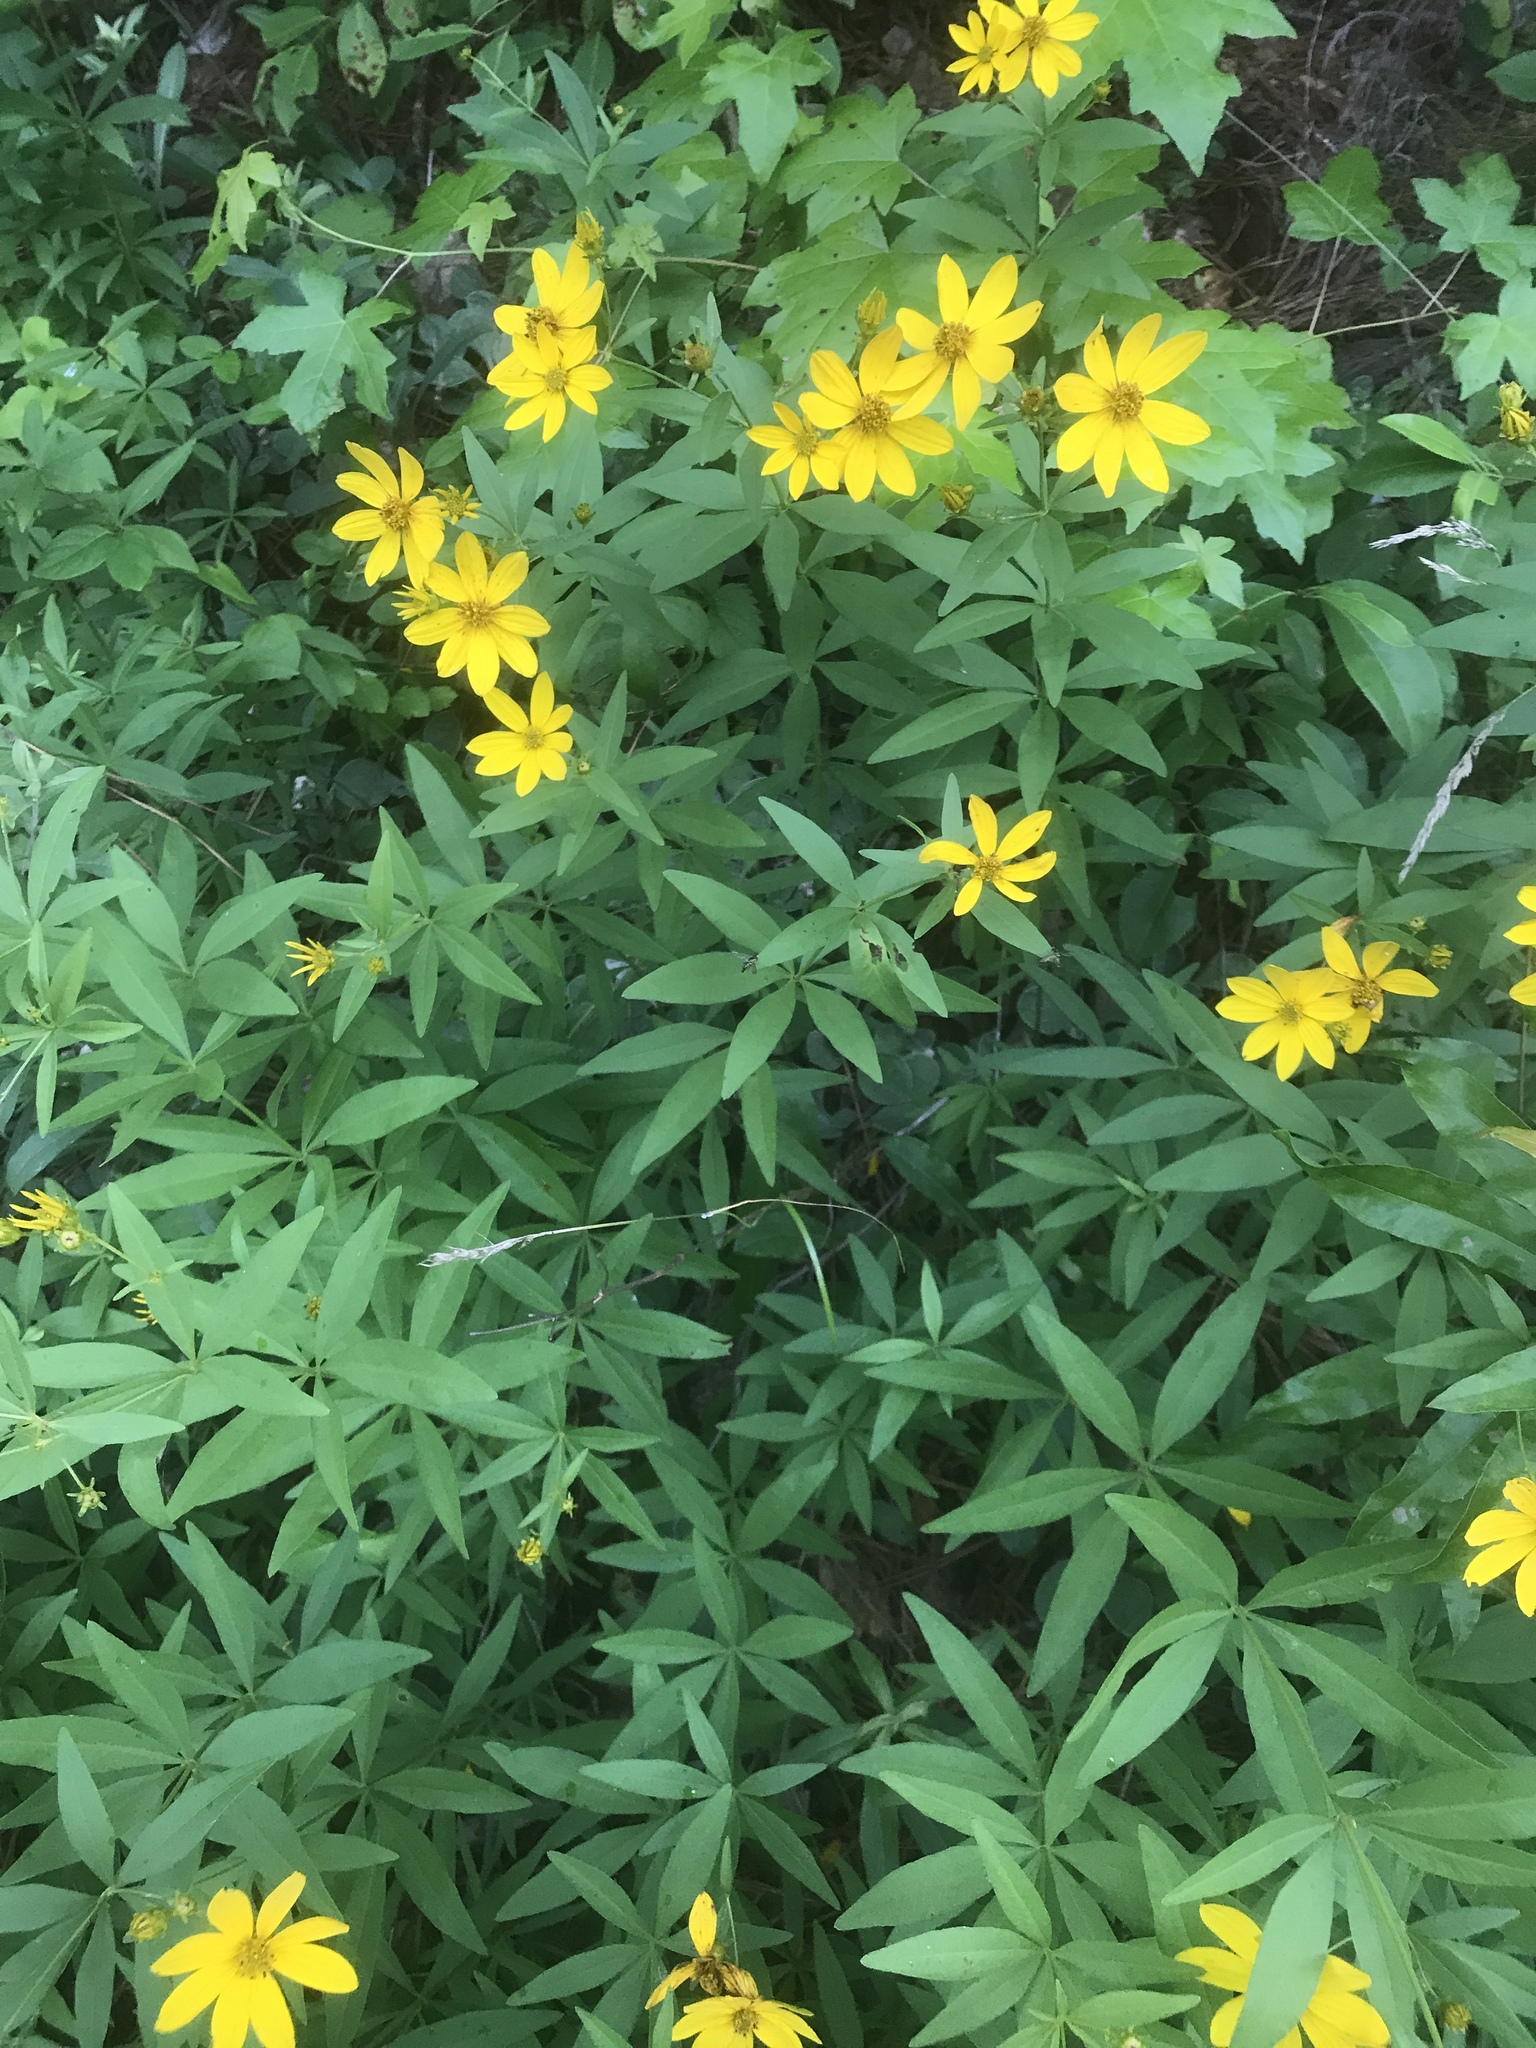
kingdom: Plantae
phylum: Tracheophyta
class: Magnoliopsida
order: Asterales
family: Asteraceae
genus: Coreopsis
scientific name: Coreopsis major
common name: Forest tickseed
